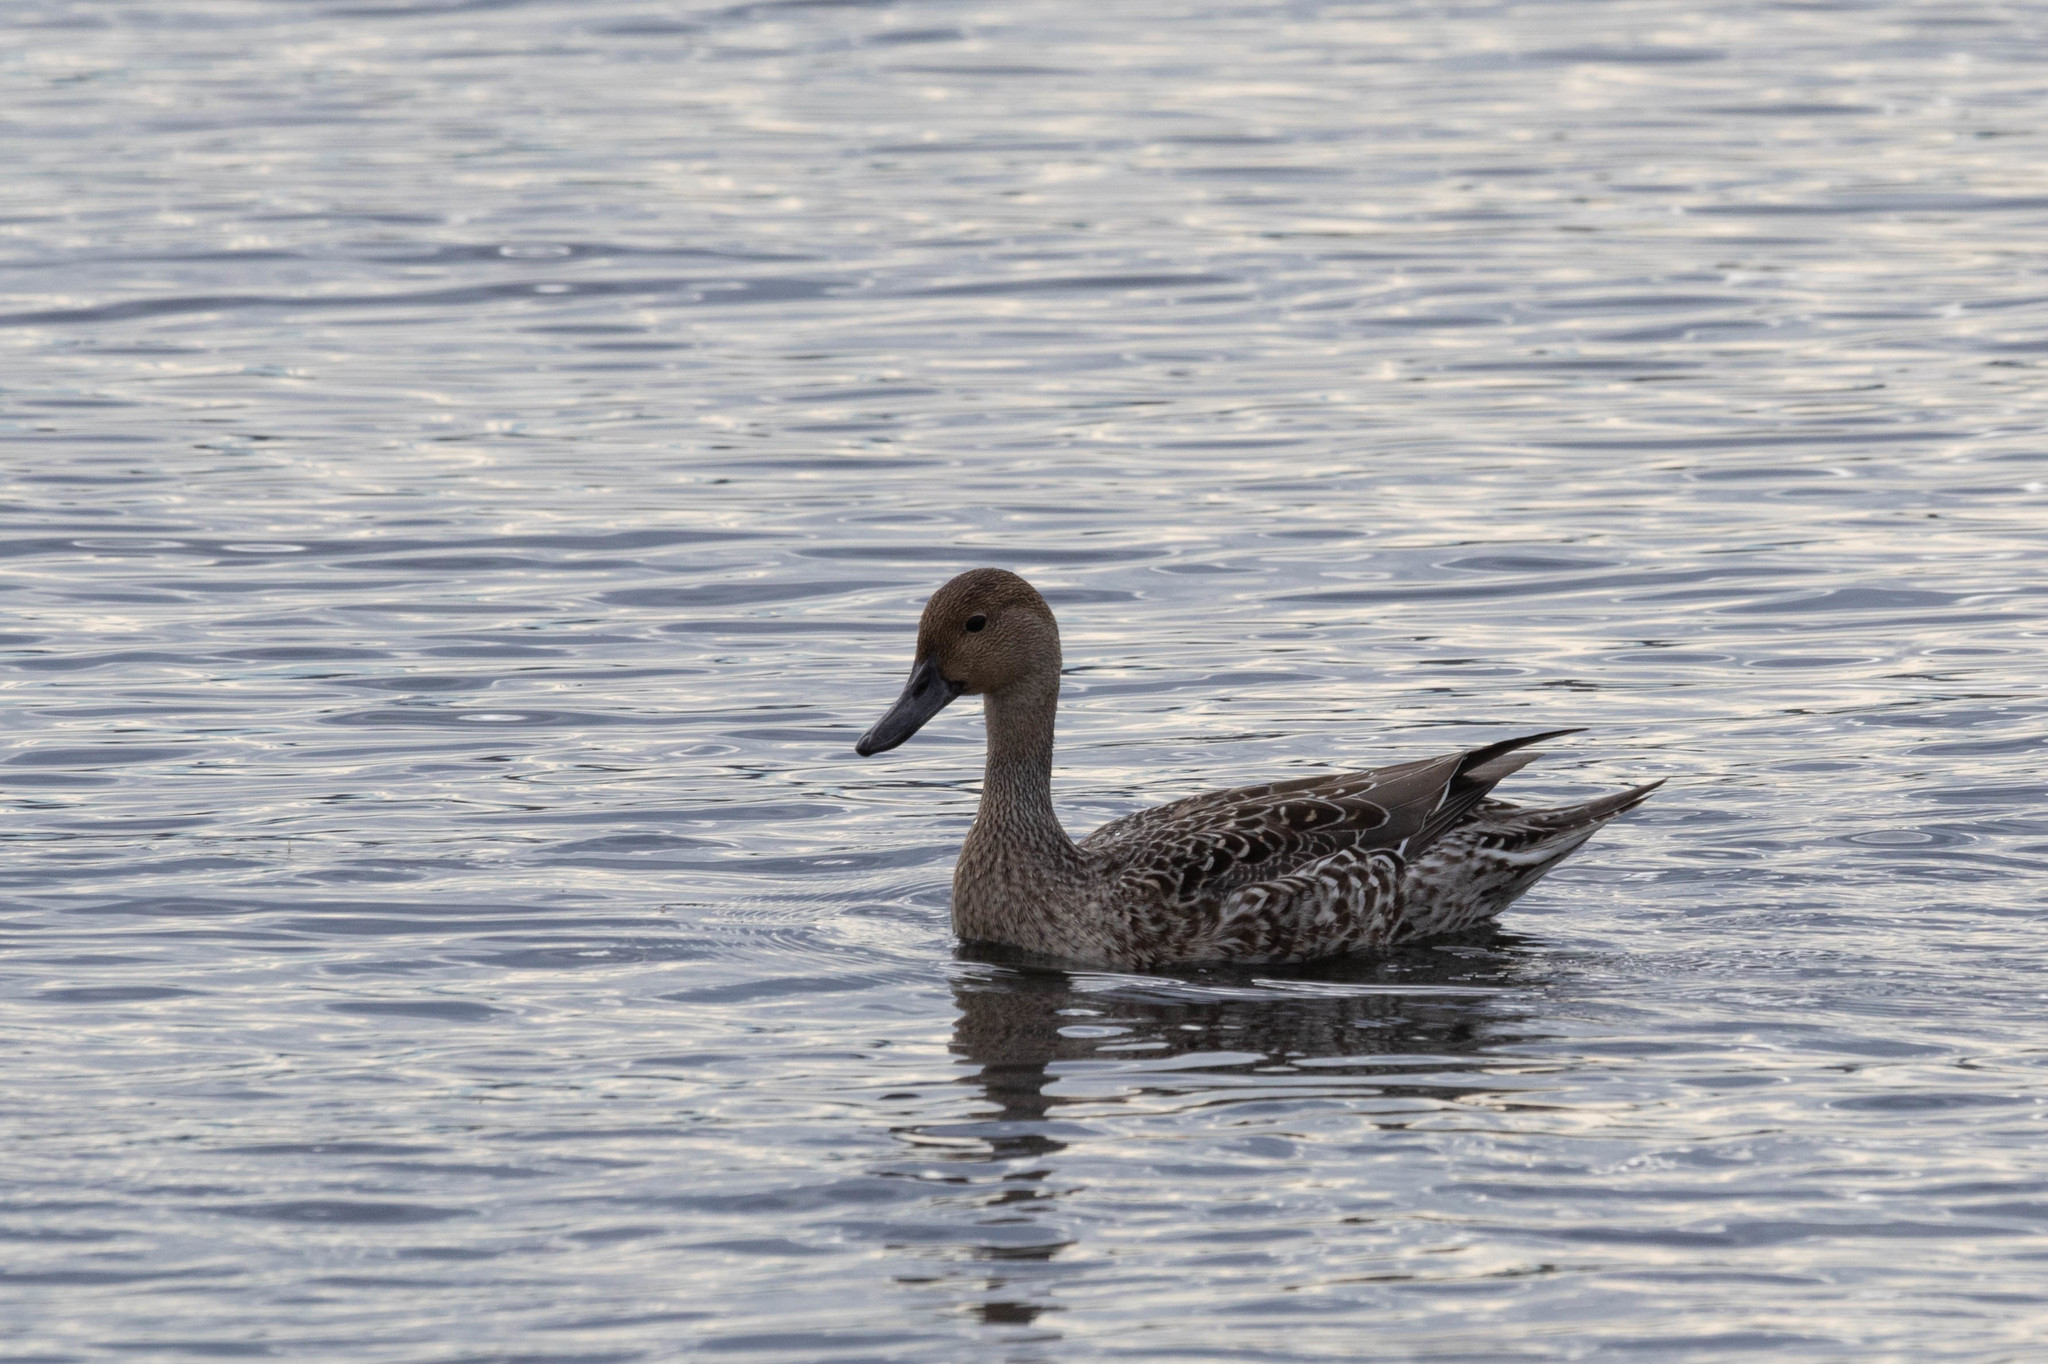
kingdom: Animalia
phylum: Chordata
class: Aves
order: Anseriformes
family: Anatidae
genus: Anas
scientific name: Anas acuta
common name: Northern pintail
